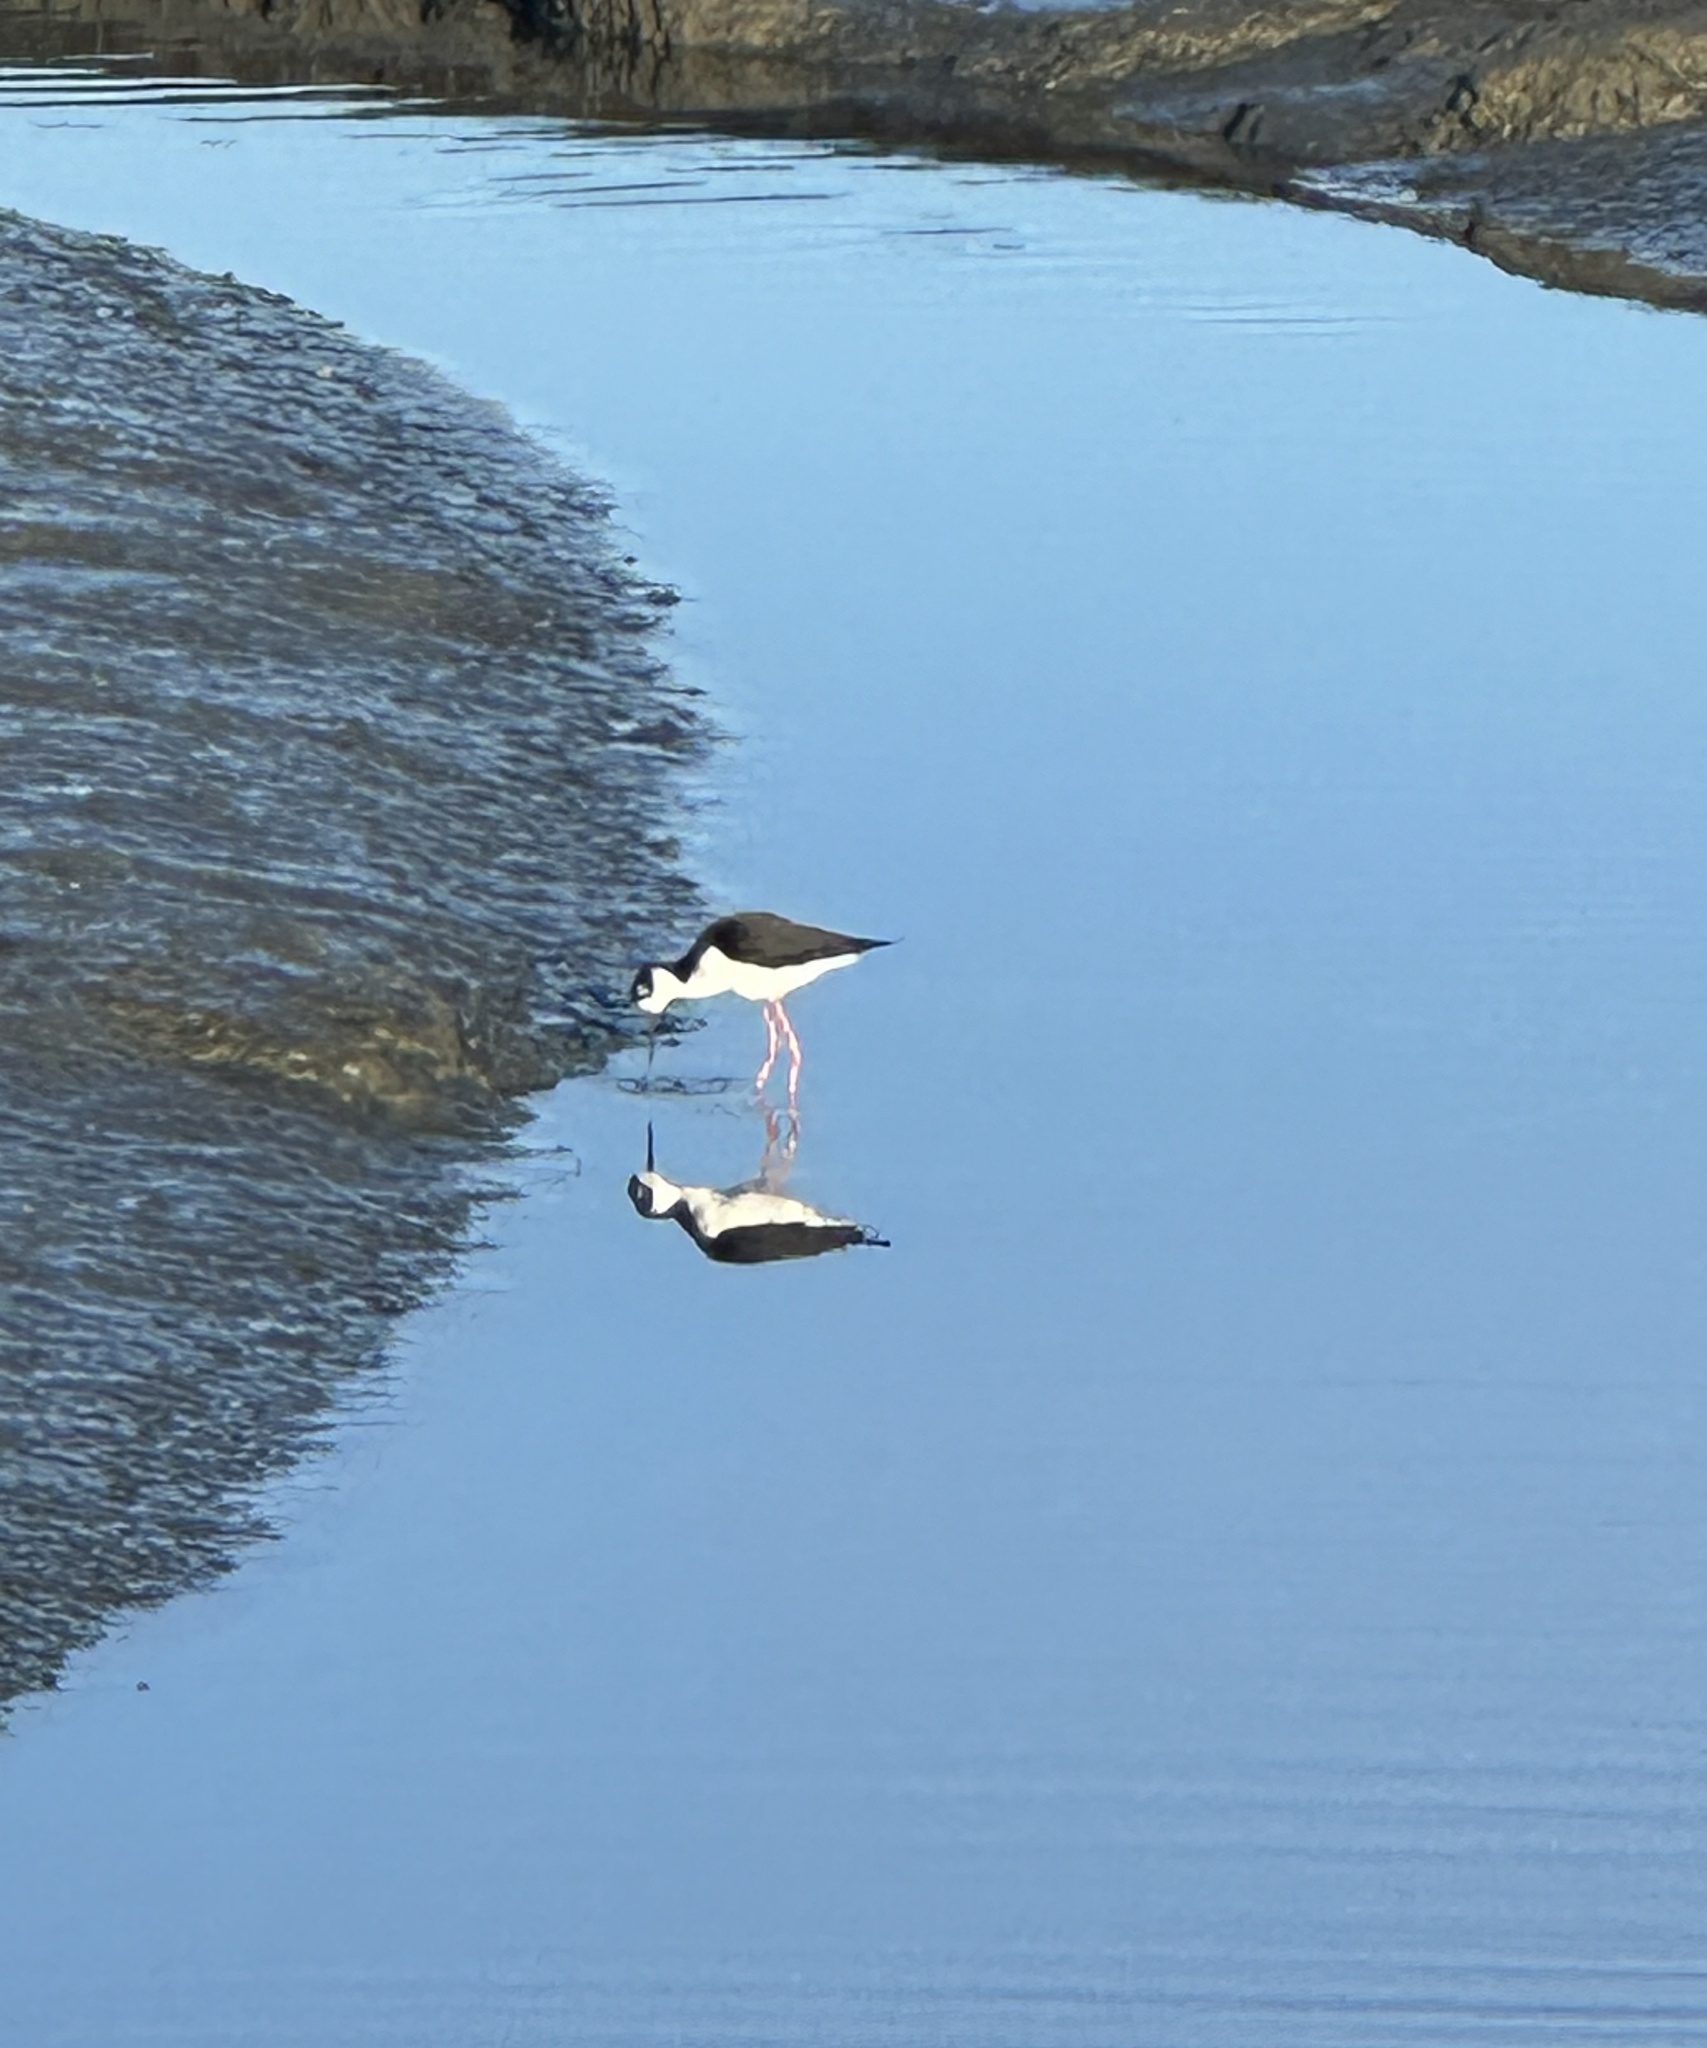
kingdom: Animalia
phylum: Chordata
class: Aves
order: Charadriiformes
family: Recurvirostridae
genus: Himantopus
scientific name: Himantopus mexicanus
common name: Black-necked stilt
